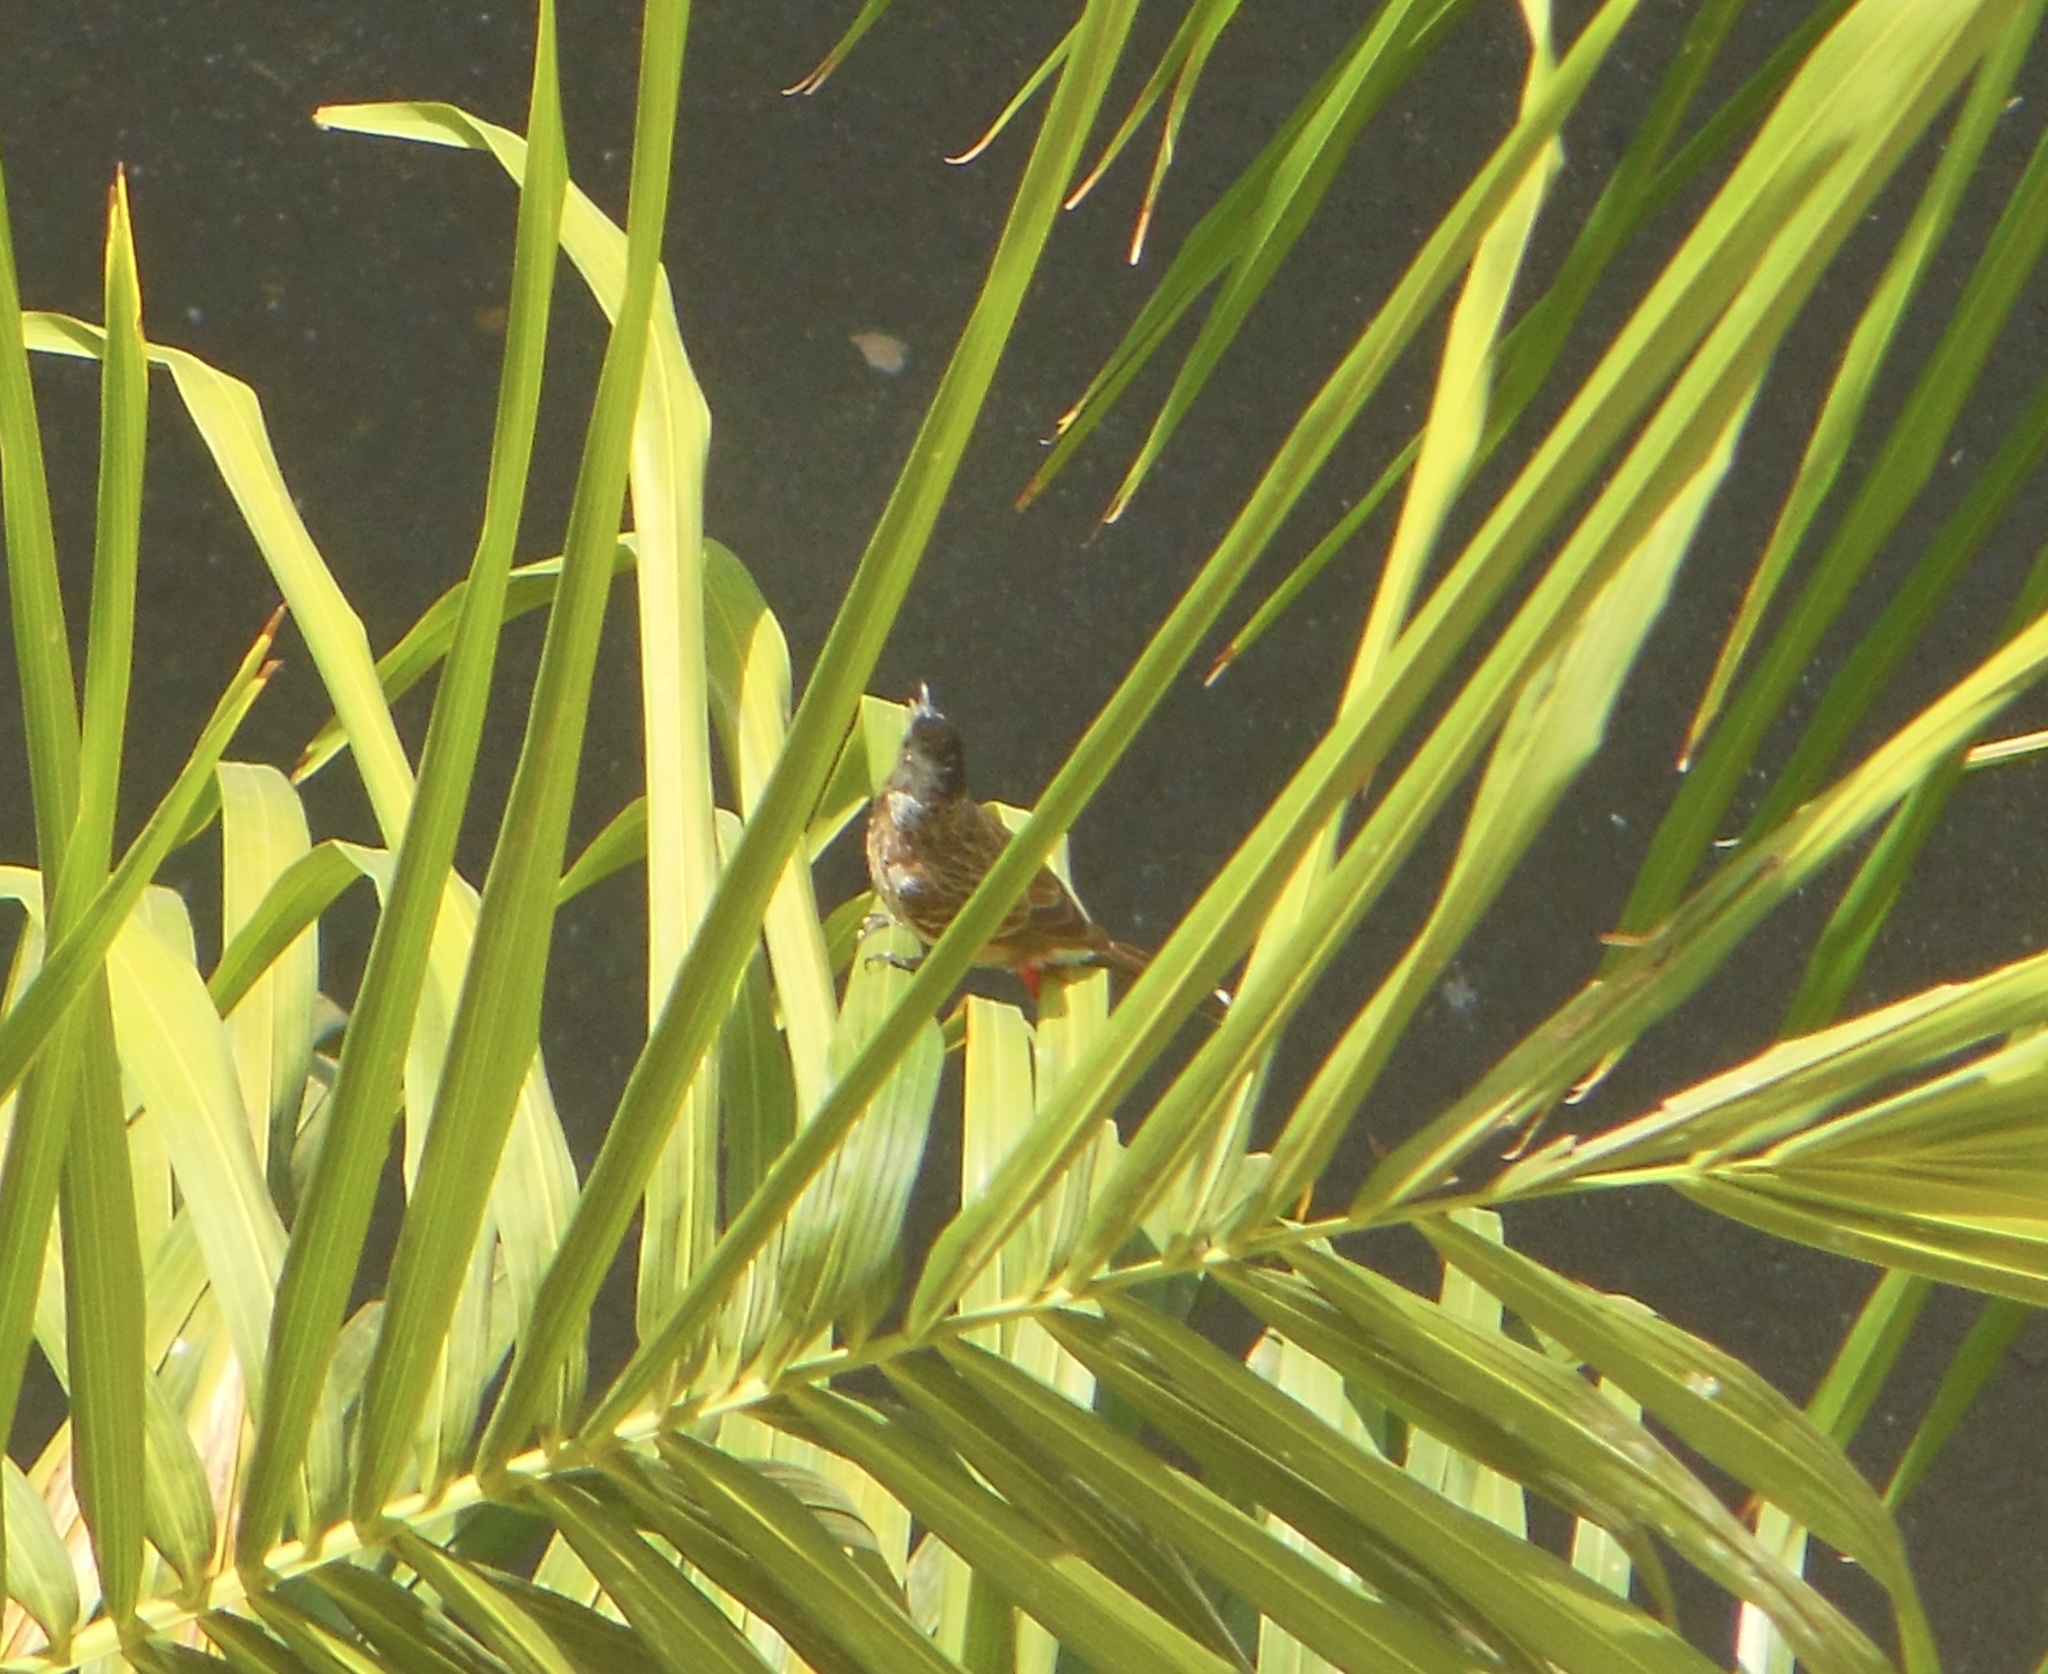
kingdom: Animalia
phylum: Chordata
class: Aves
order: Passeriformes
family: Pycnonotidae
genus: Pycnonotus
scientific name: Pycnonotus cafer
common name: Red-vented bulbul
